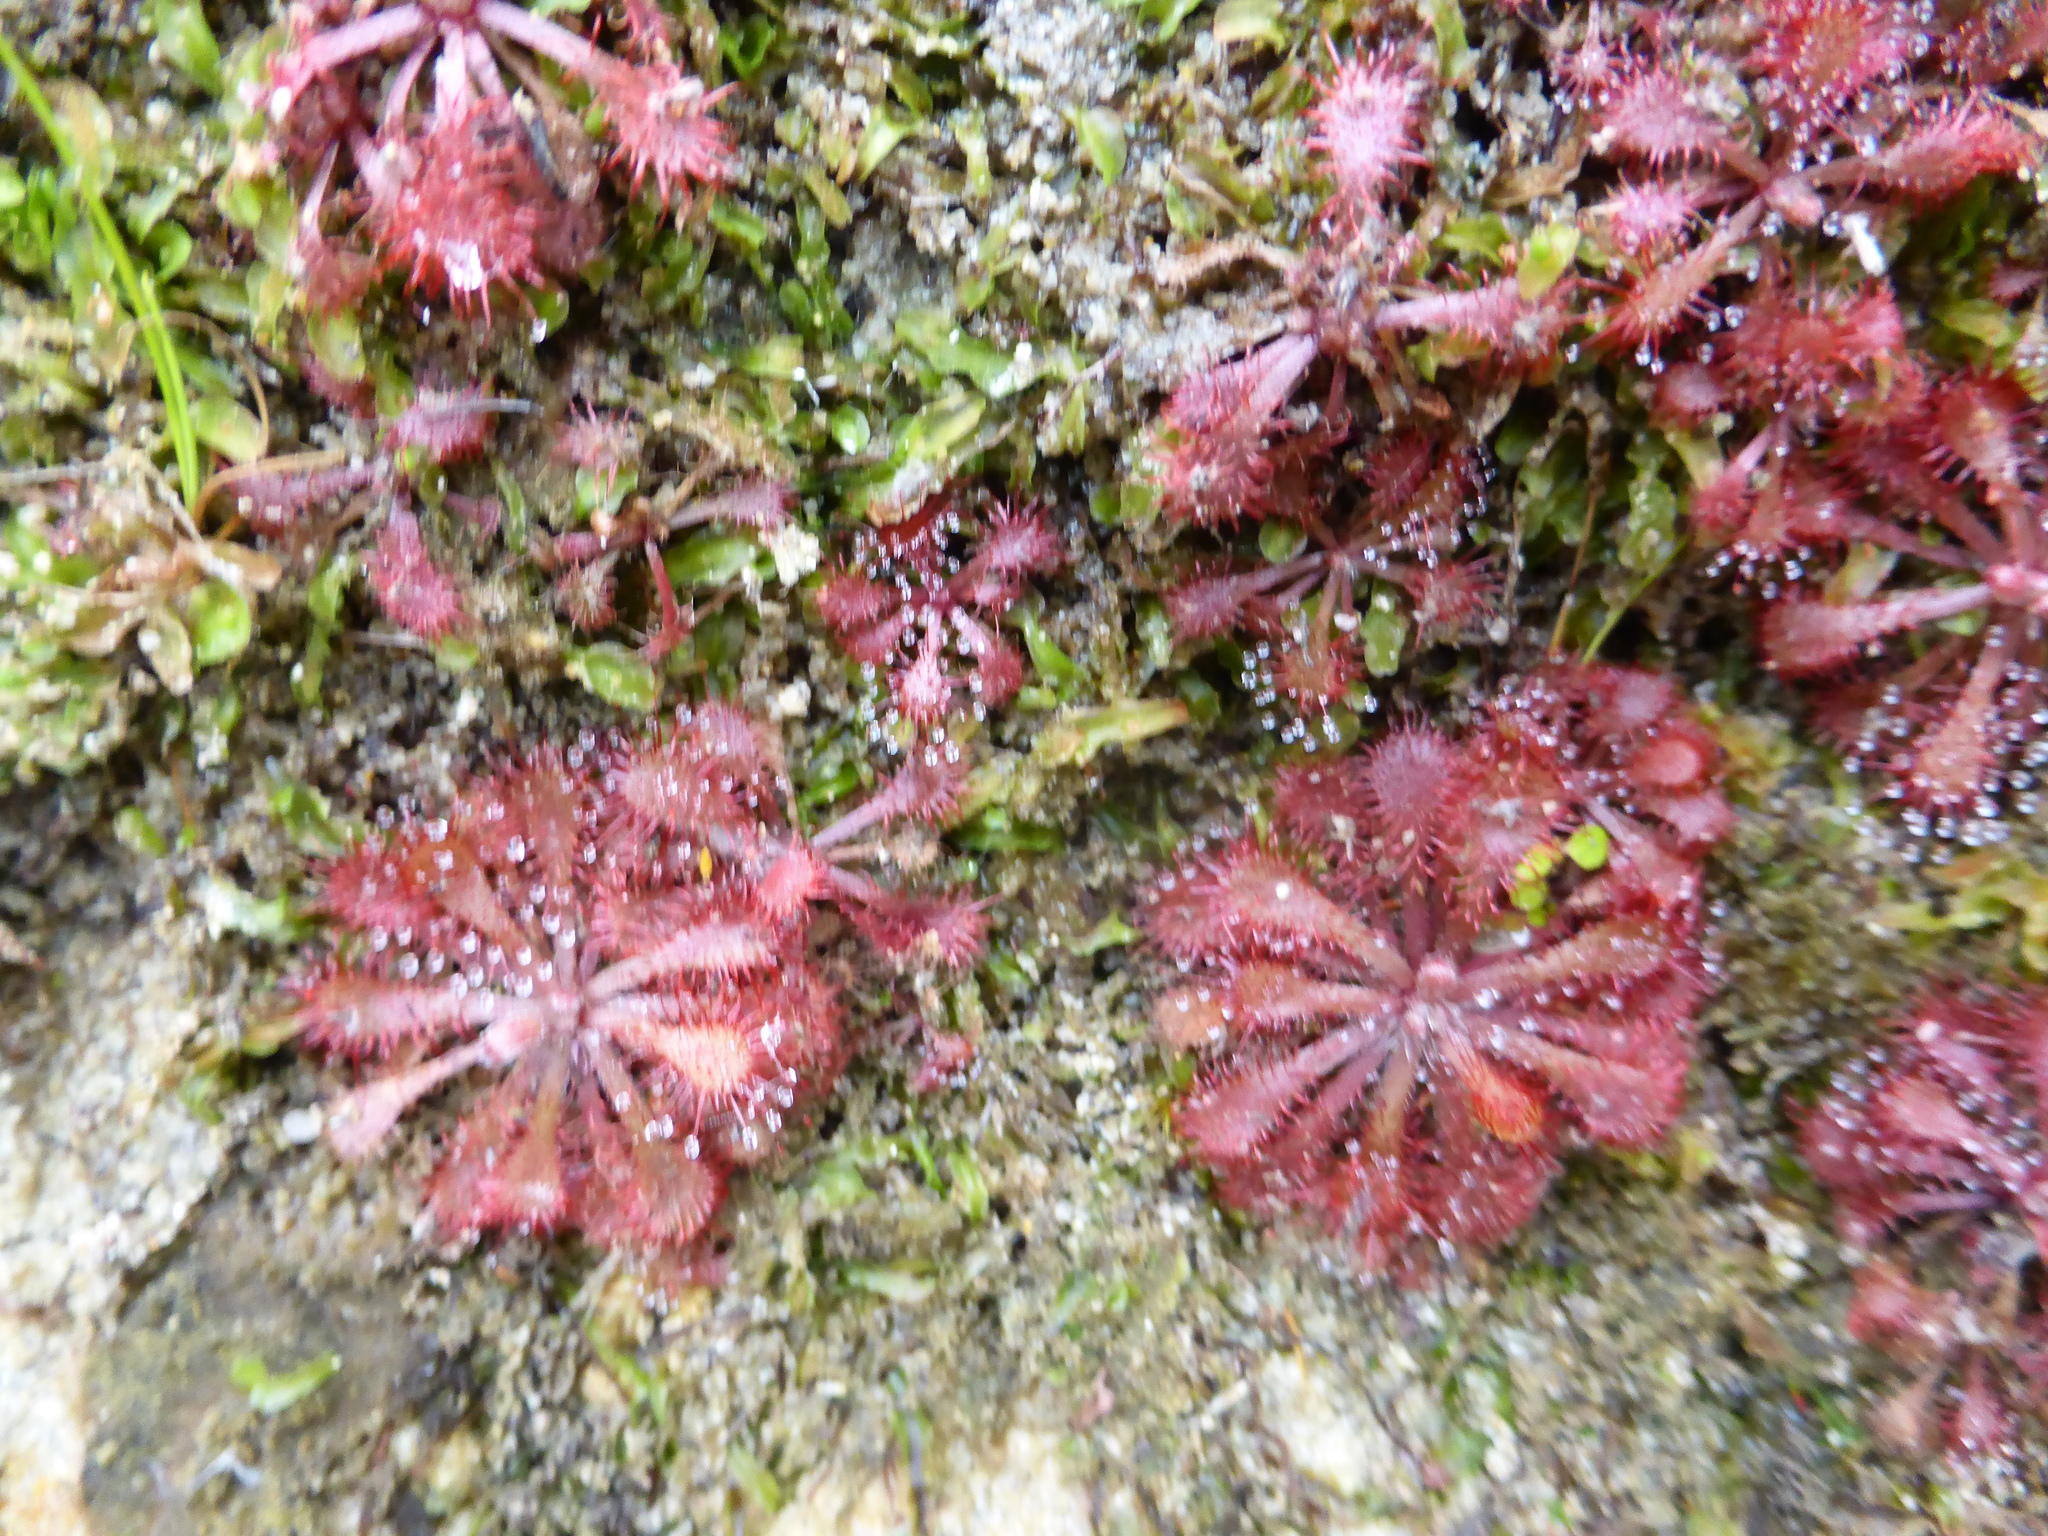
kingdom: Plantae
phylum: Tracheophyta
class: Magnoliopsida
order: Caryophyllales
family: Droseraceae
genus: Drosera
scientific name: Drosera natalensis
